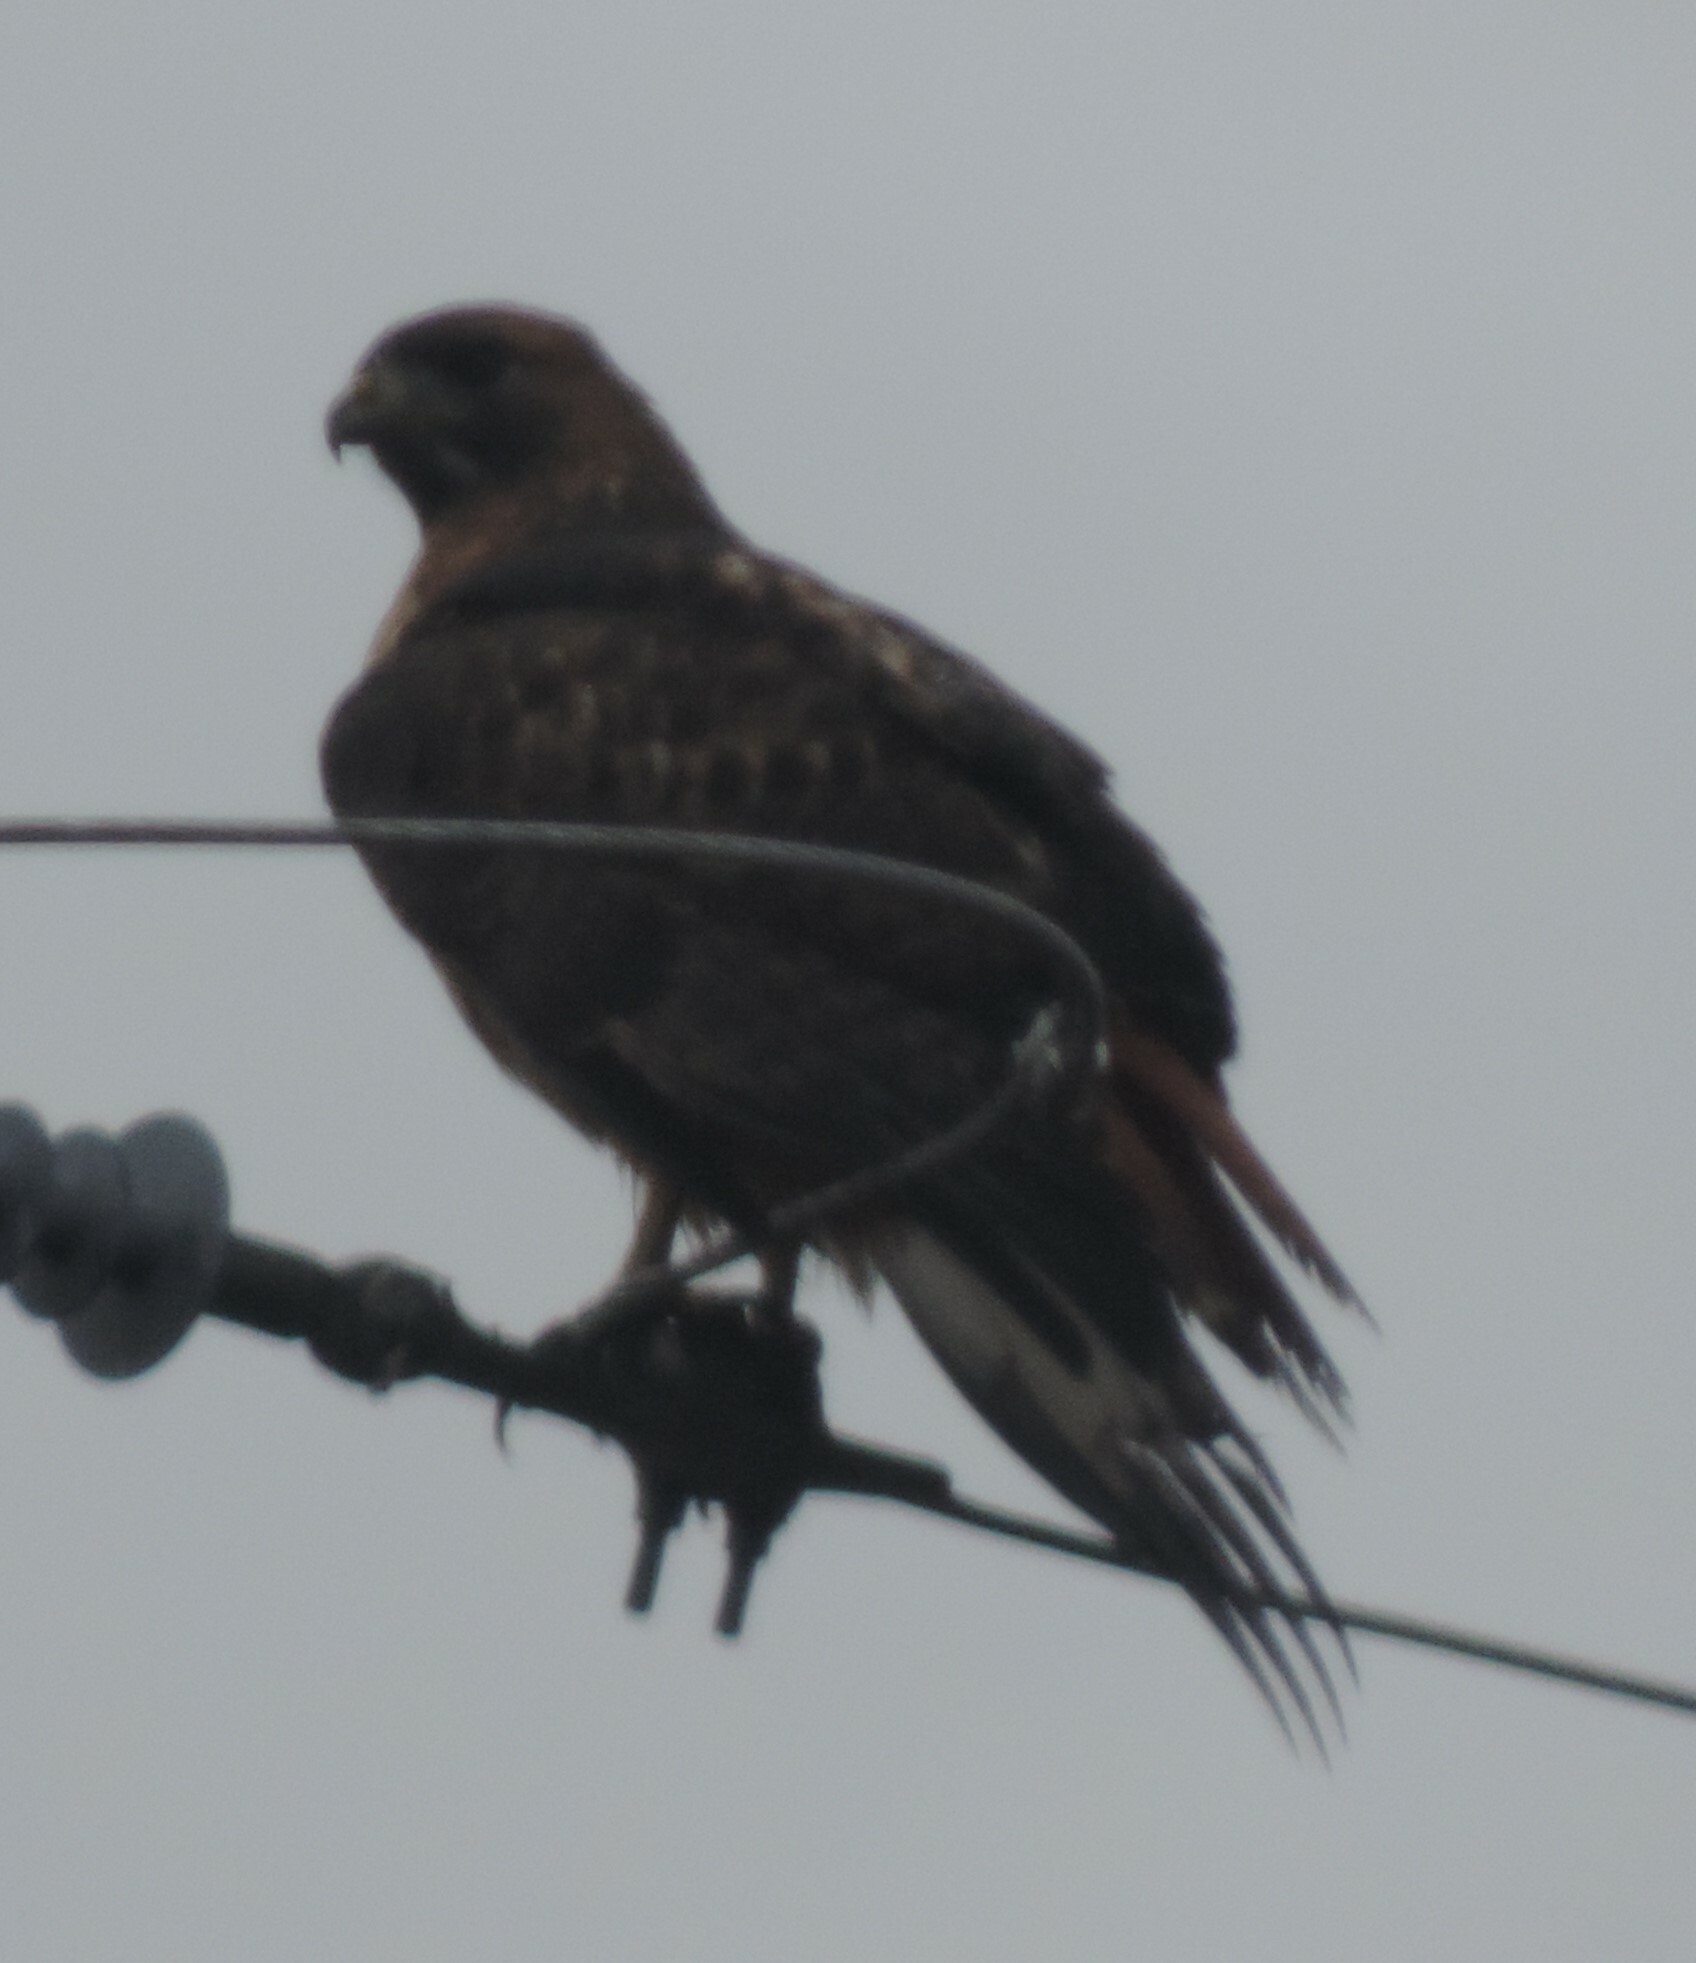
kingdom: Animalia
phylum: Chordata
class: Aves
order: Accipitriformes
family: Accipitridae
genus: Buteo
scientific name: Buteo jamaicensis
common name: Red-tailed hawk
